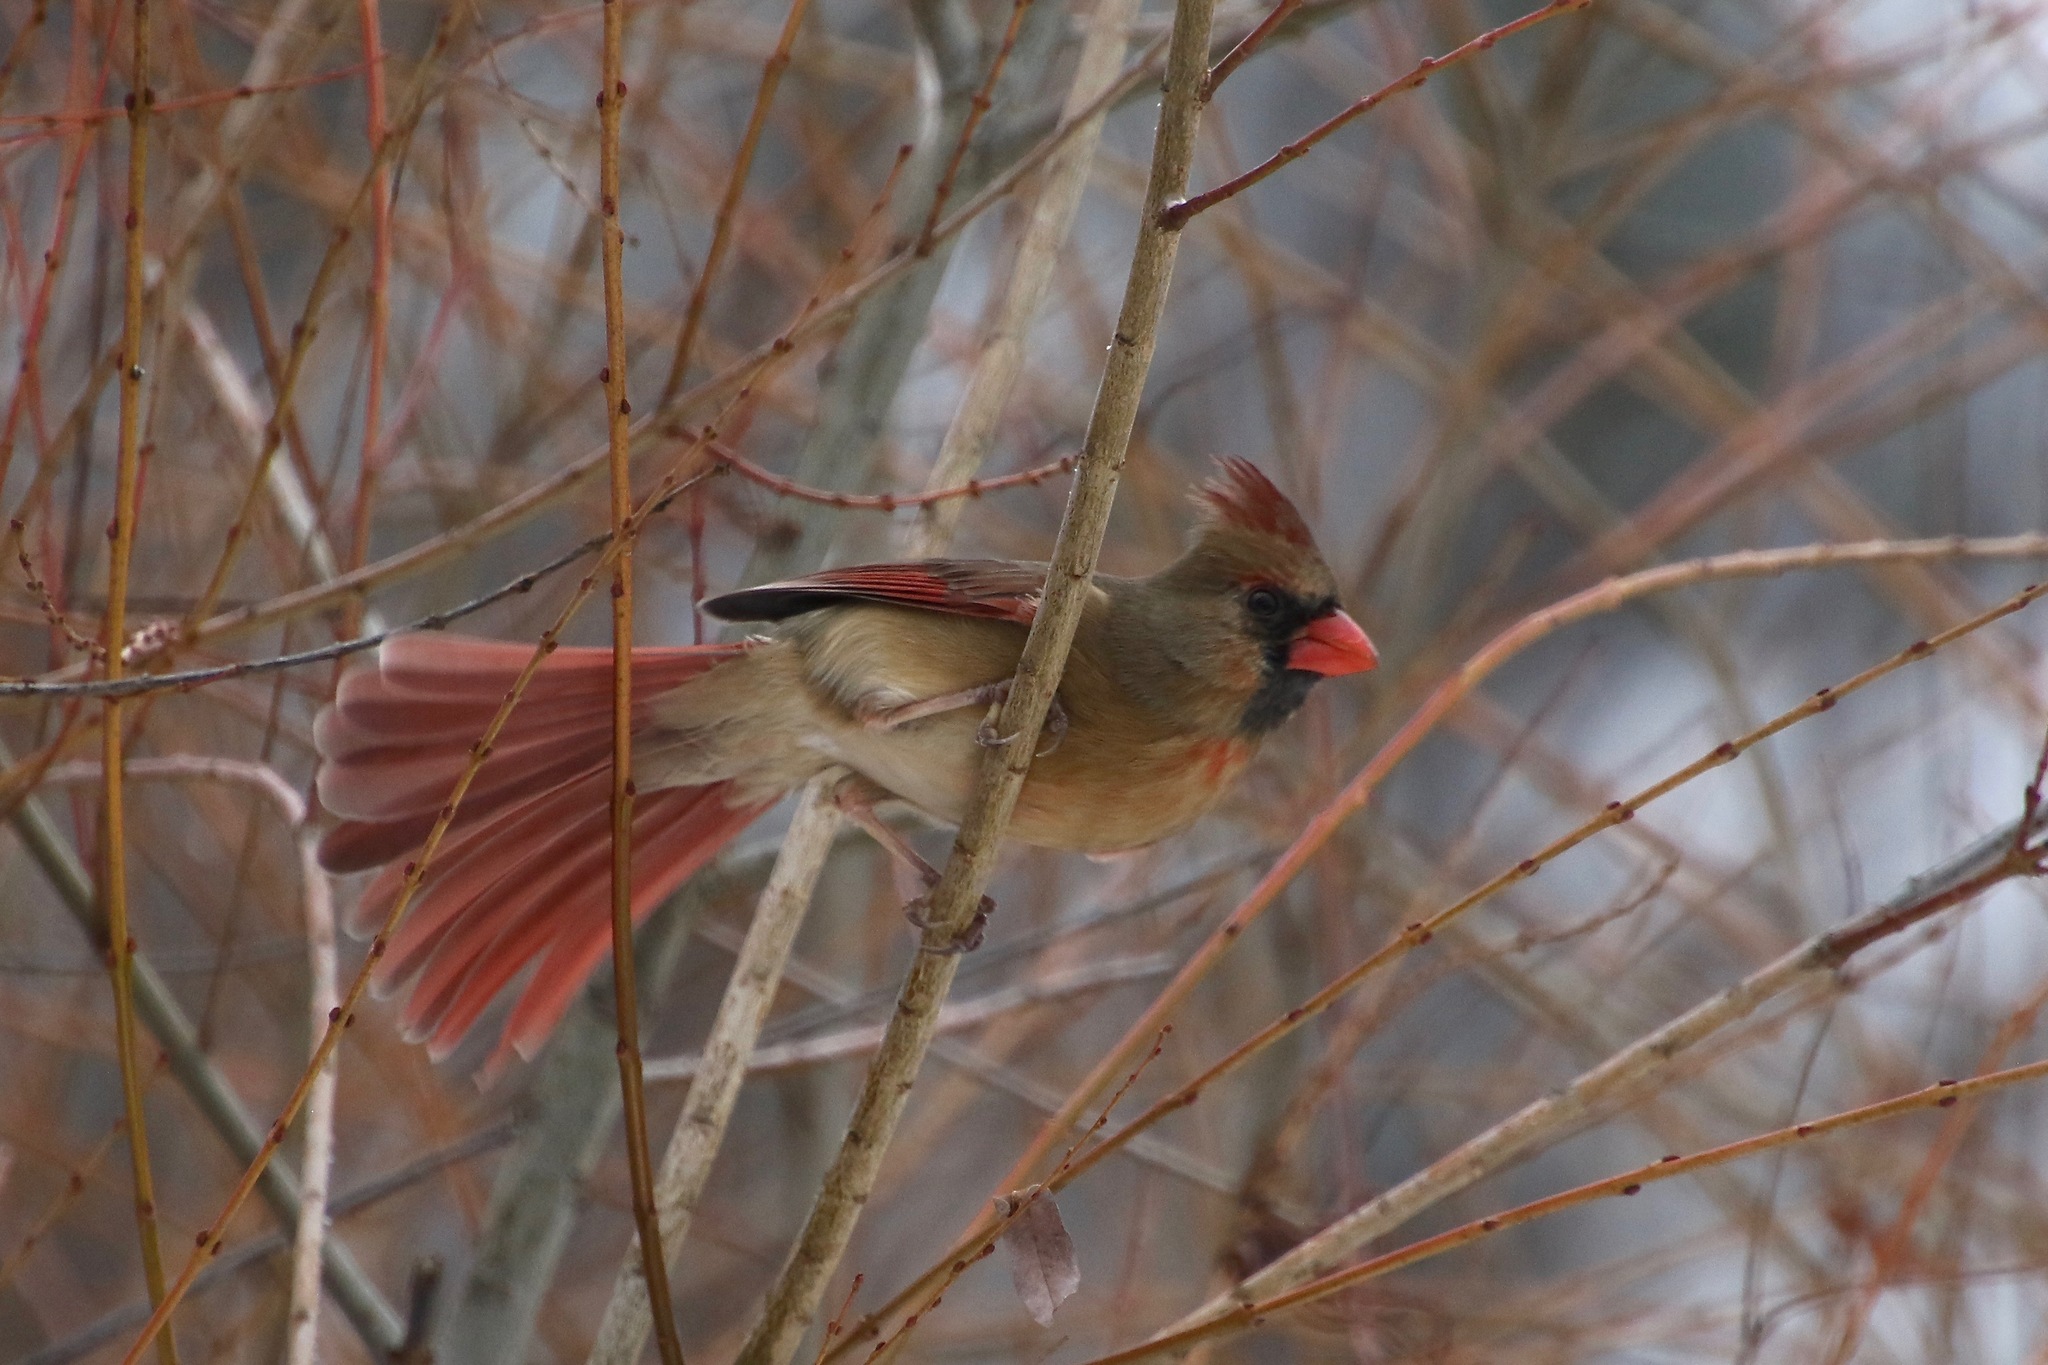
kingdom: Animalia
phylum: Chordata
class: Aves
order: Passeriformes
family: Cardinalidae
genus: Cardinalis
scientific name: Cardinalis cardinalis
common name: Northern cardinal
